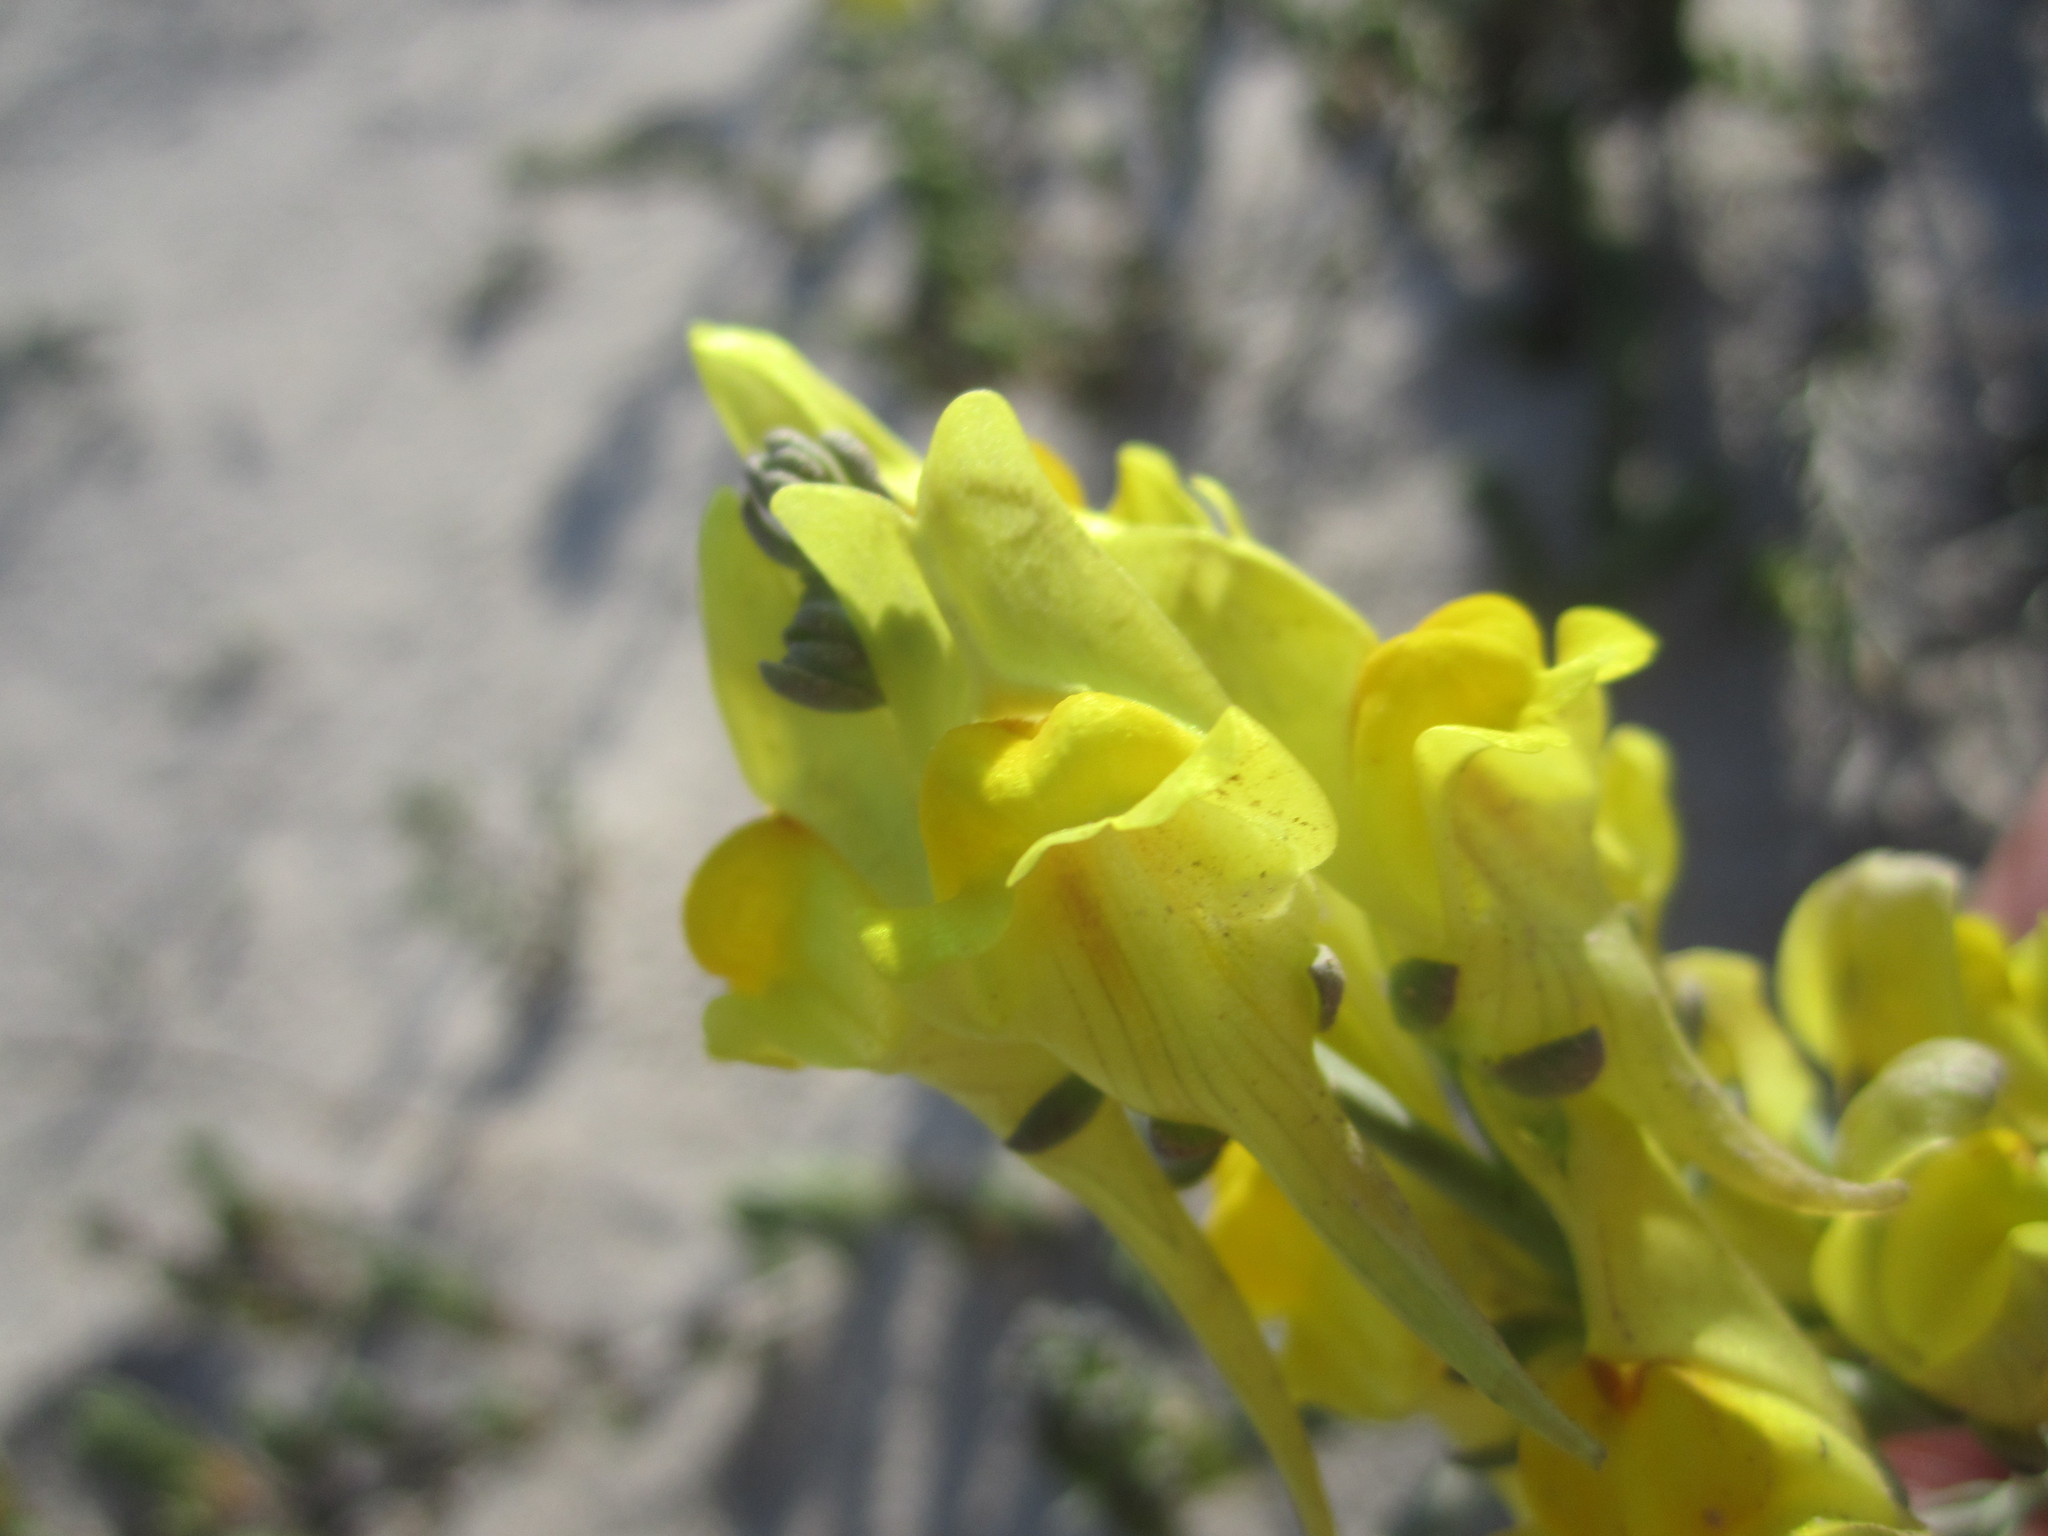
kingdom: Plantae
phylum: Tracheophyta
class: Magnoliopsida
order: Lamiales
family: Plantaginaceae
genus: Linaria
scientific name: Linaria polygalifolia
